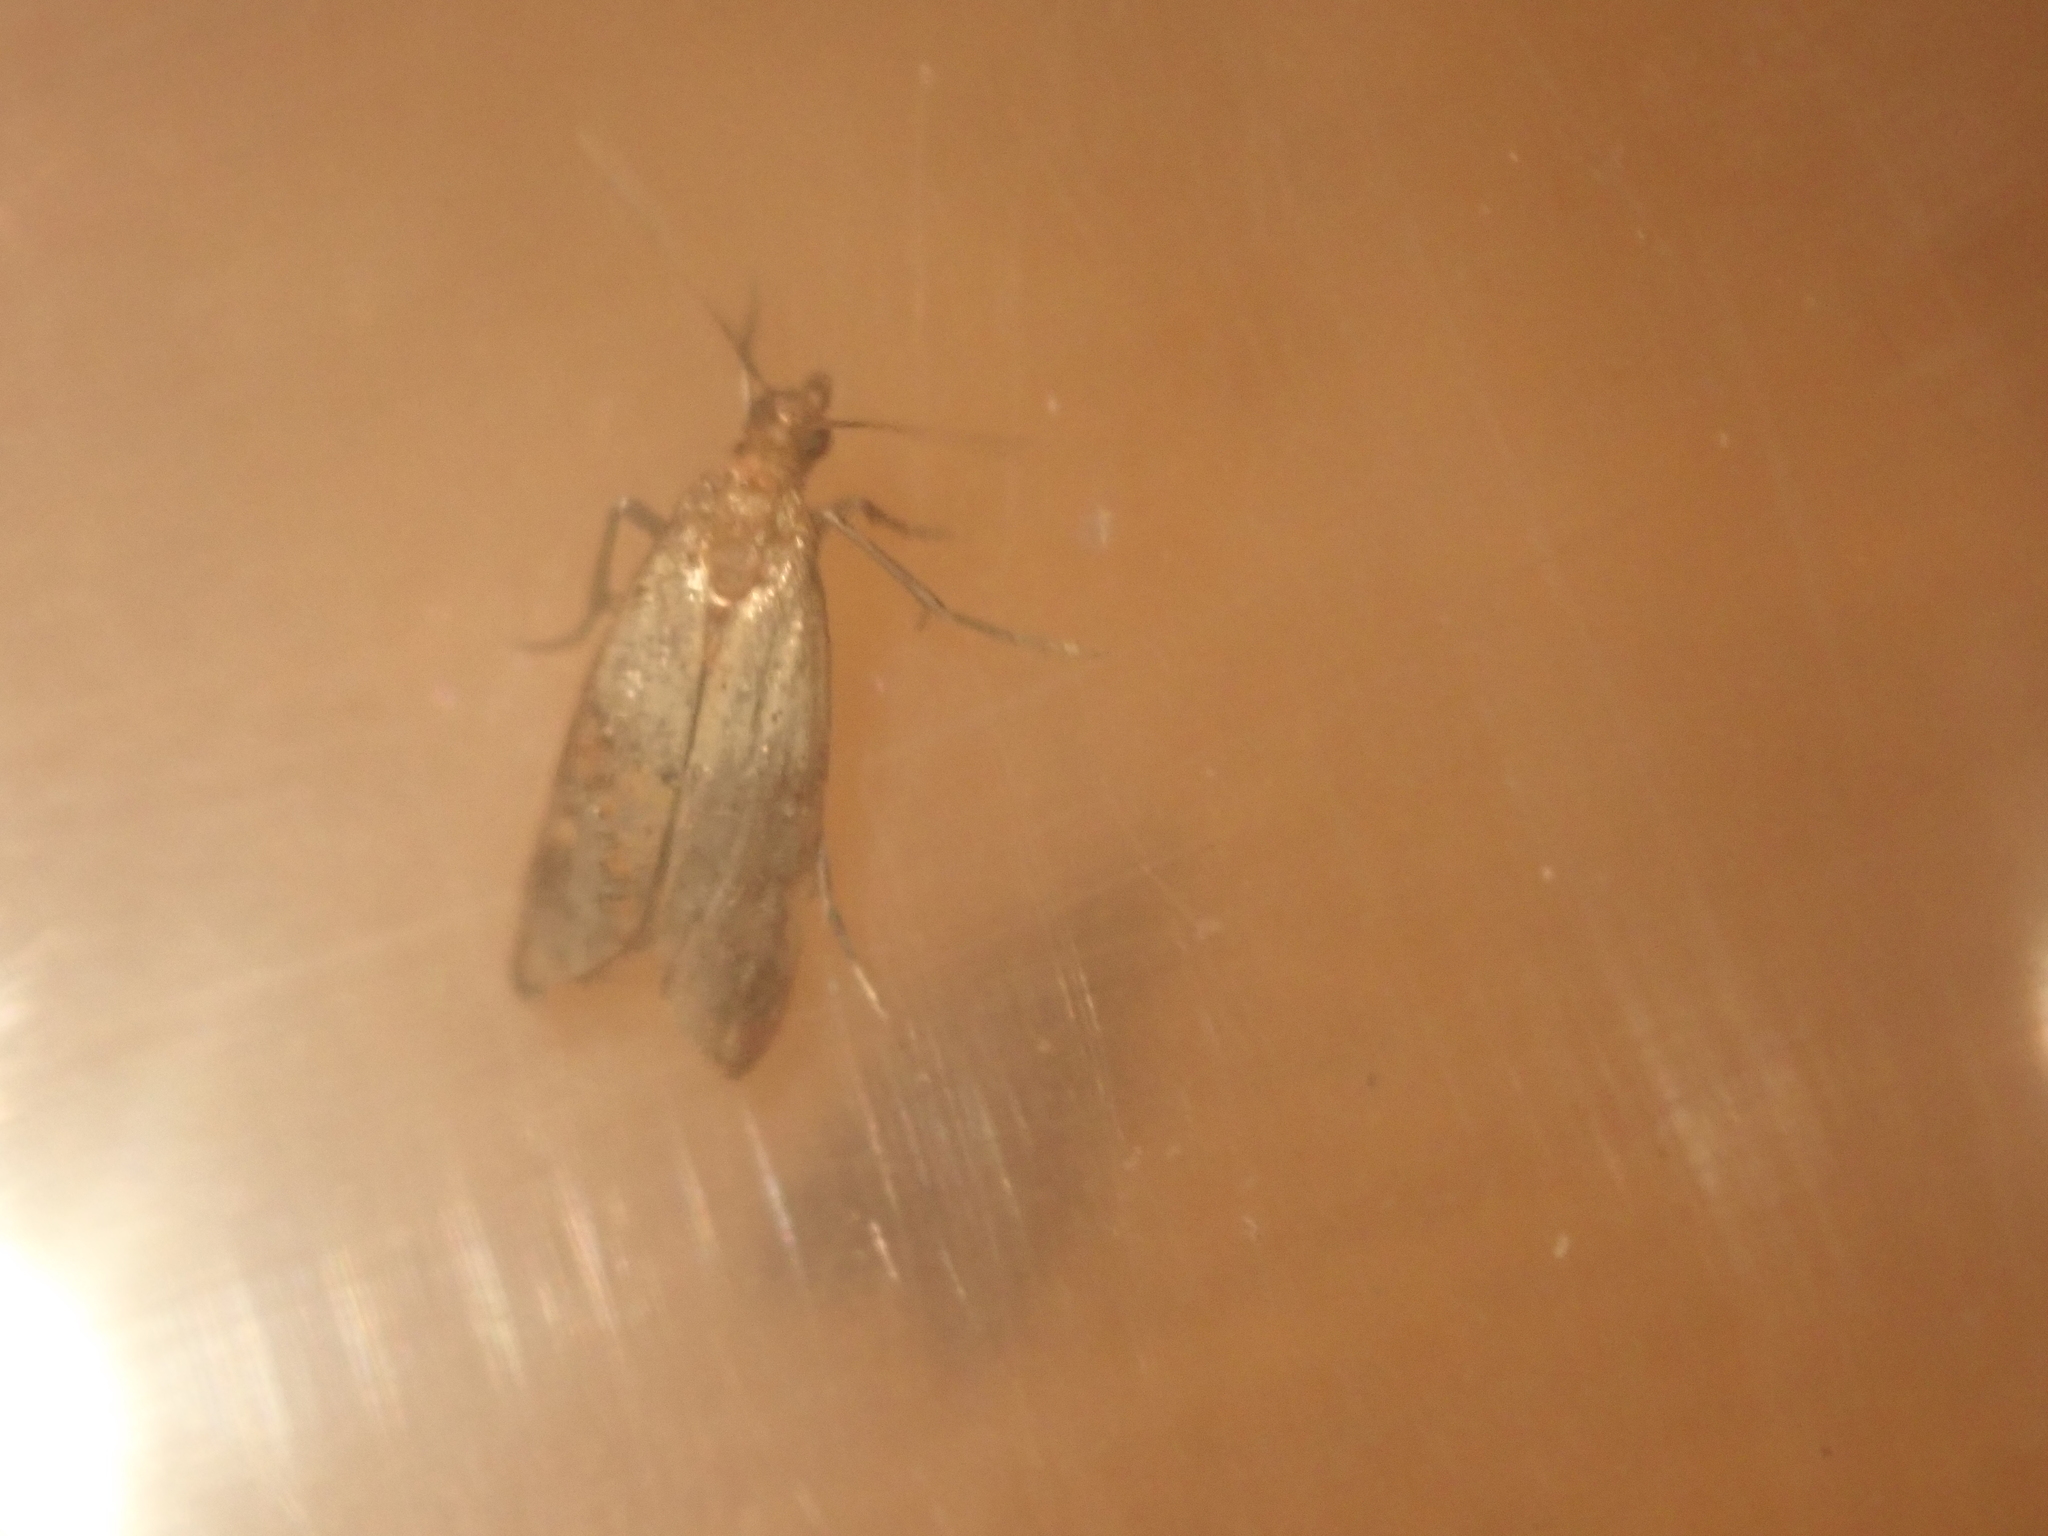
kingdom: Animalia
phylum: Arthropoda
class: Insecta
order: Lepidoptera
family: Pyralidae
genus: Plodia
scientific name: Plodia interpunctella
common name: Indian meal moth
